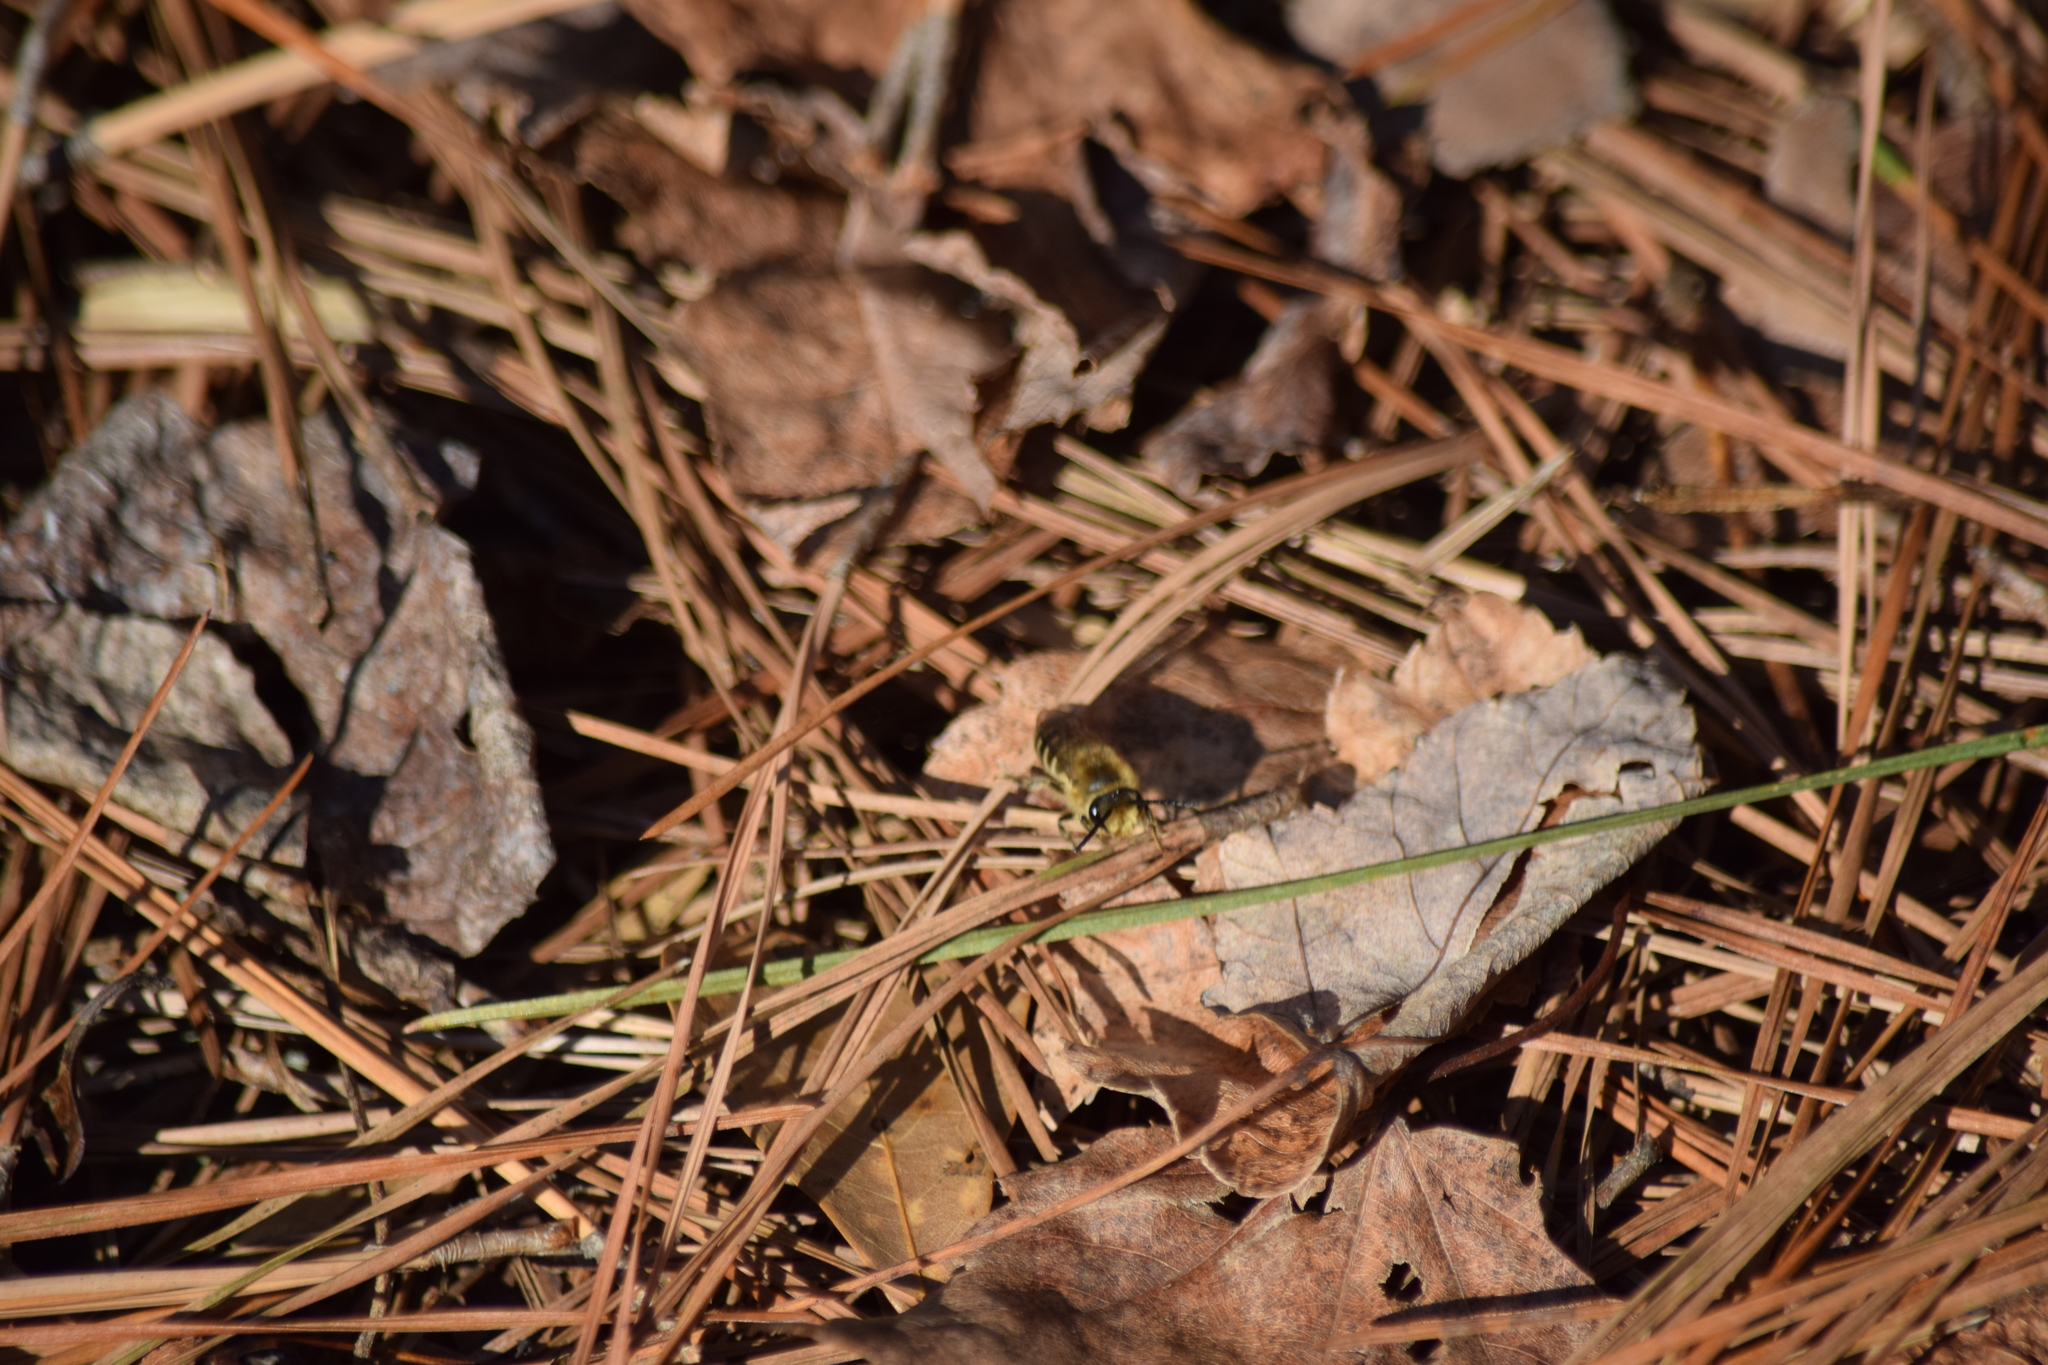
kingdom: Animalia
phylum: Arthropoda
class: Insecta
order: Hymenoptera
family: Colletidae
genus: Colletes
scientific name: Colletes inaequalis
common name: Unequal cellophane bee
